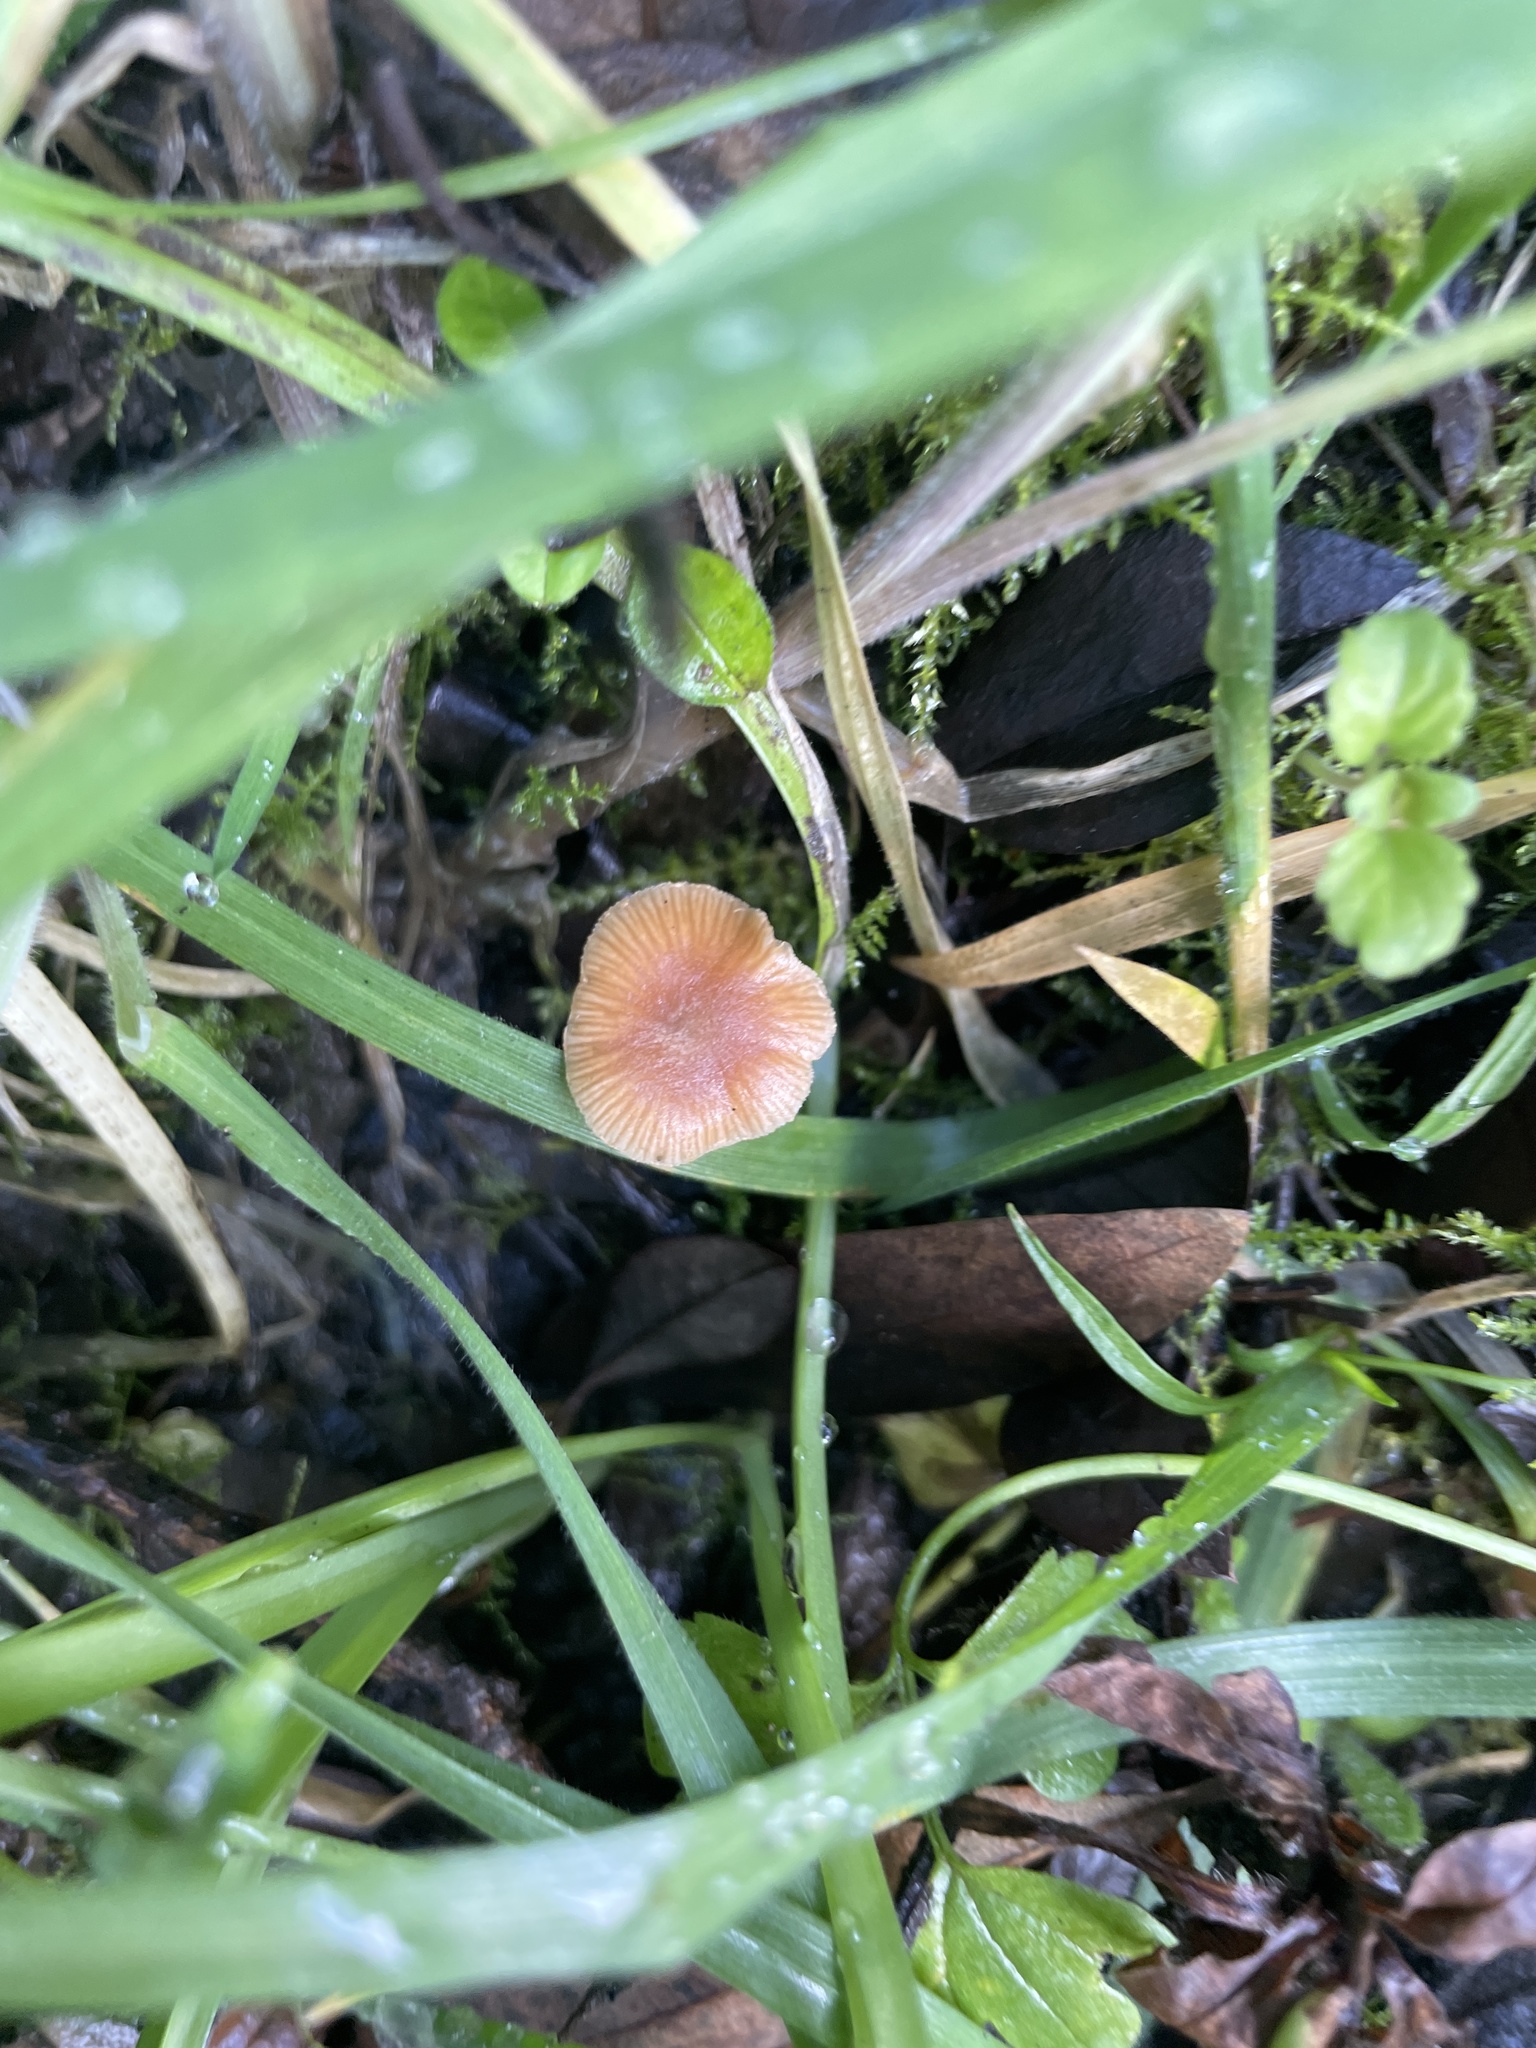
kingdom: Fungi
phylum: Basidiomycota
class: Agaricomycetes
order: Agaricales
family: Tubariaceae
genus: Tubaria
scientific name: Tubaria furfuracea
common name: Scurfy twiglet
